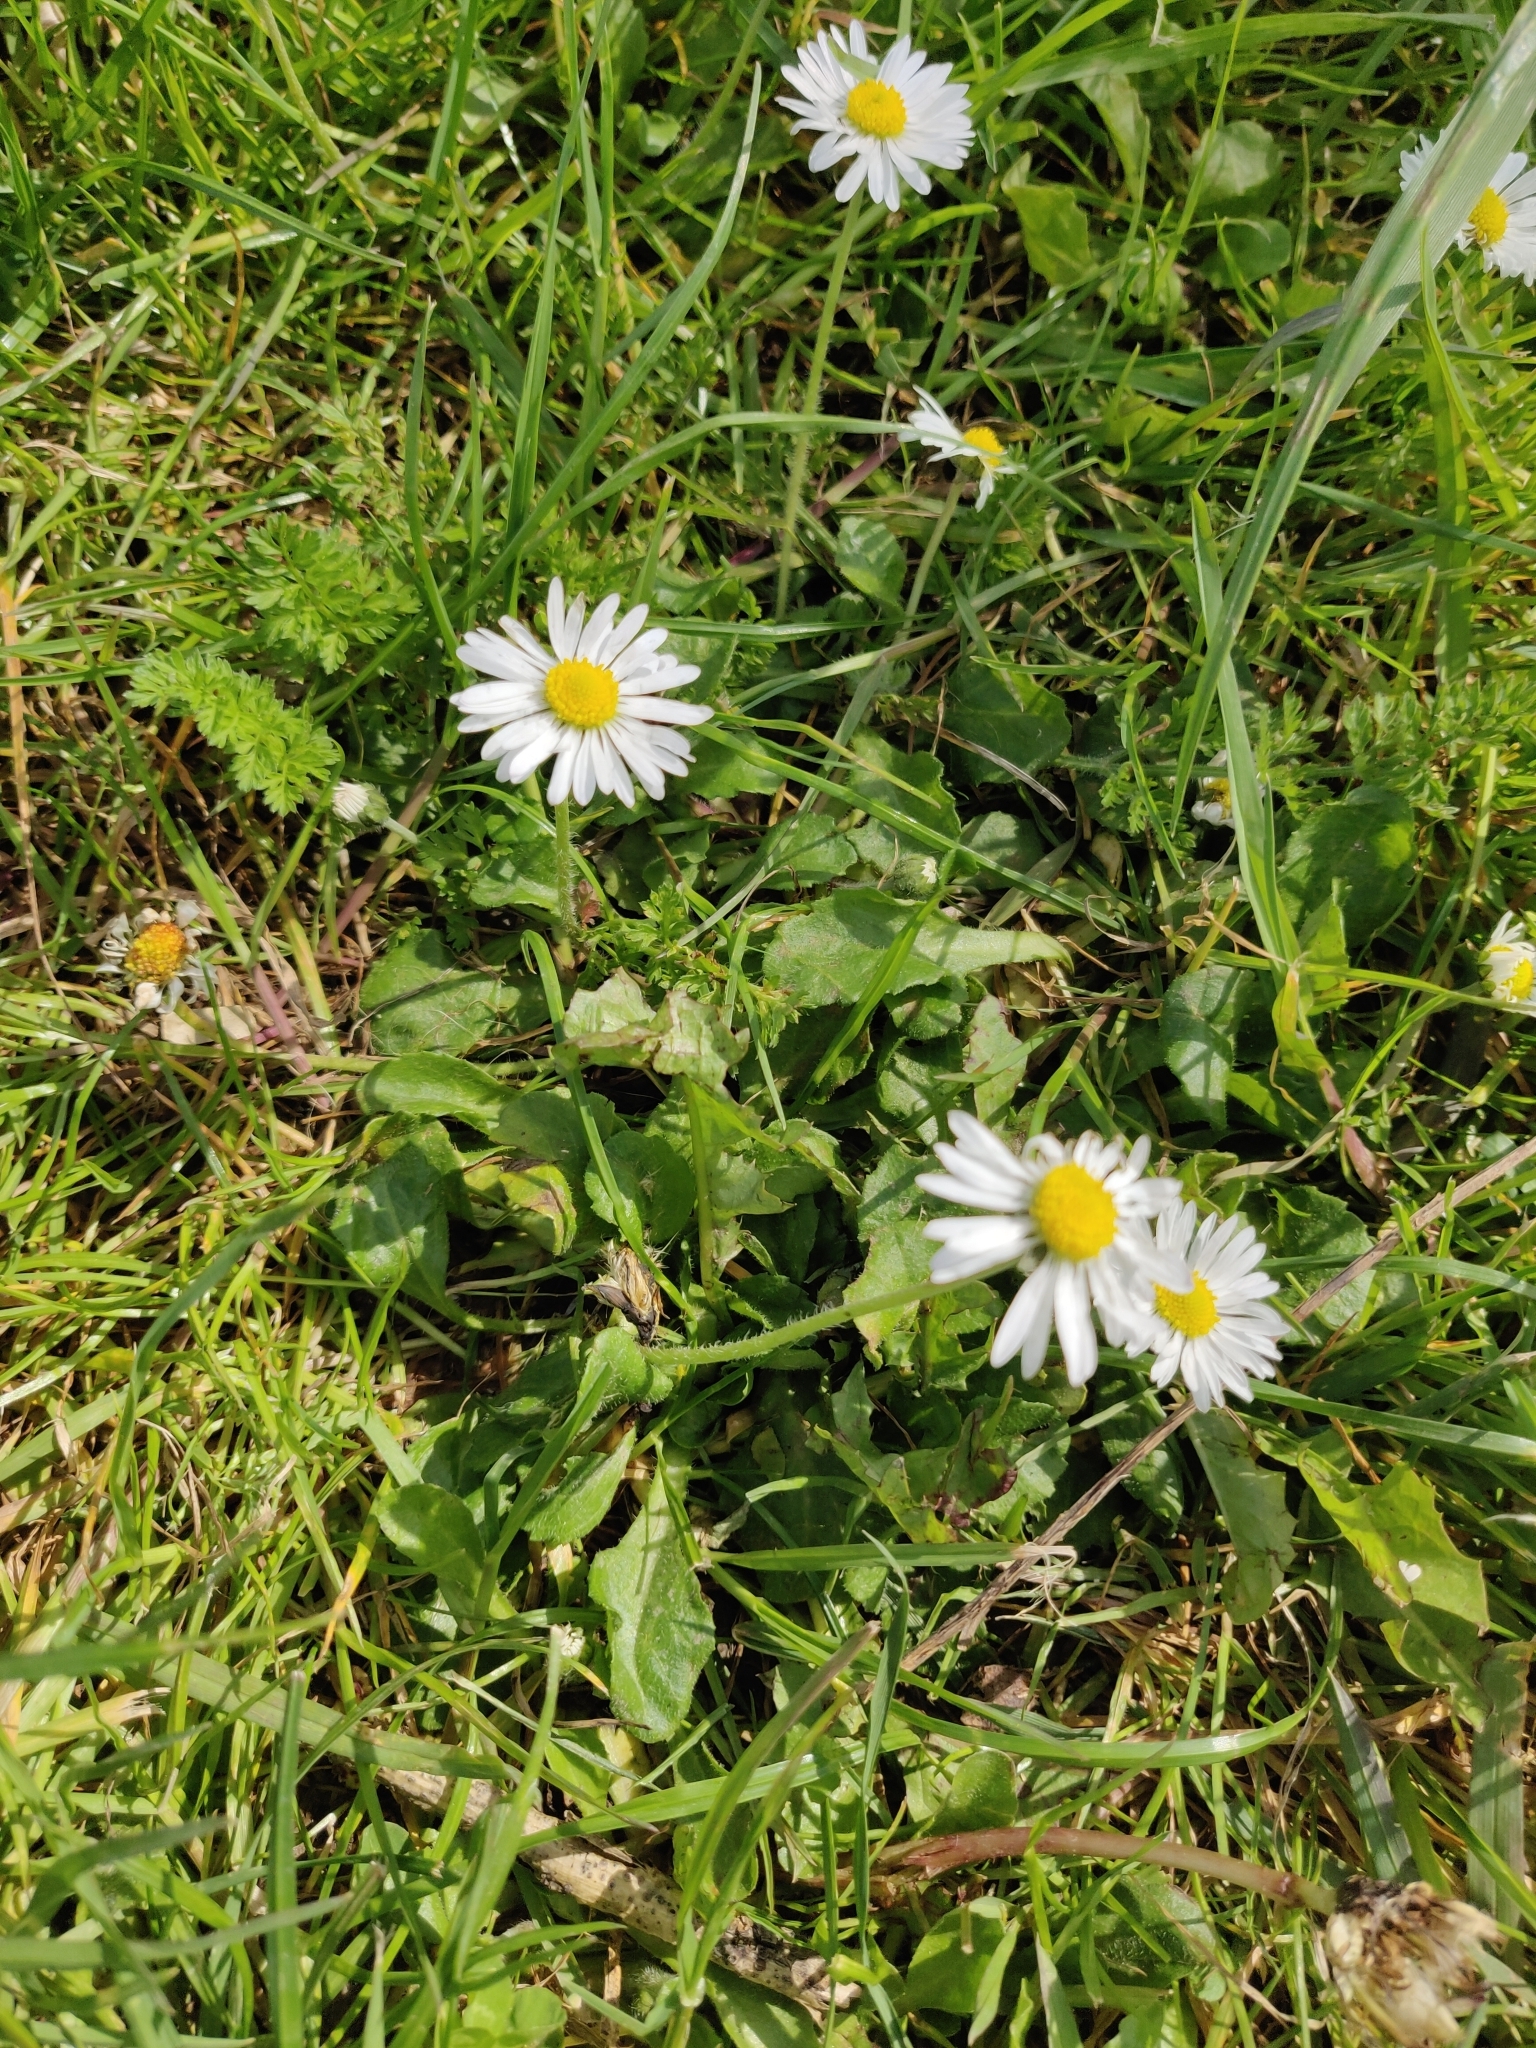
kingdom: Plantae
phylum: Tracheophyta
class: Magnoliopsida
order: Asterales
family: Asteraceae
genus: Bellis
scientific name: Bellis perennis
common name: Lawndaisy
